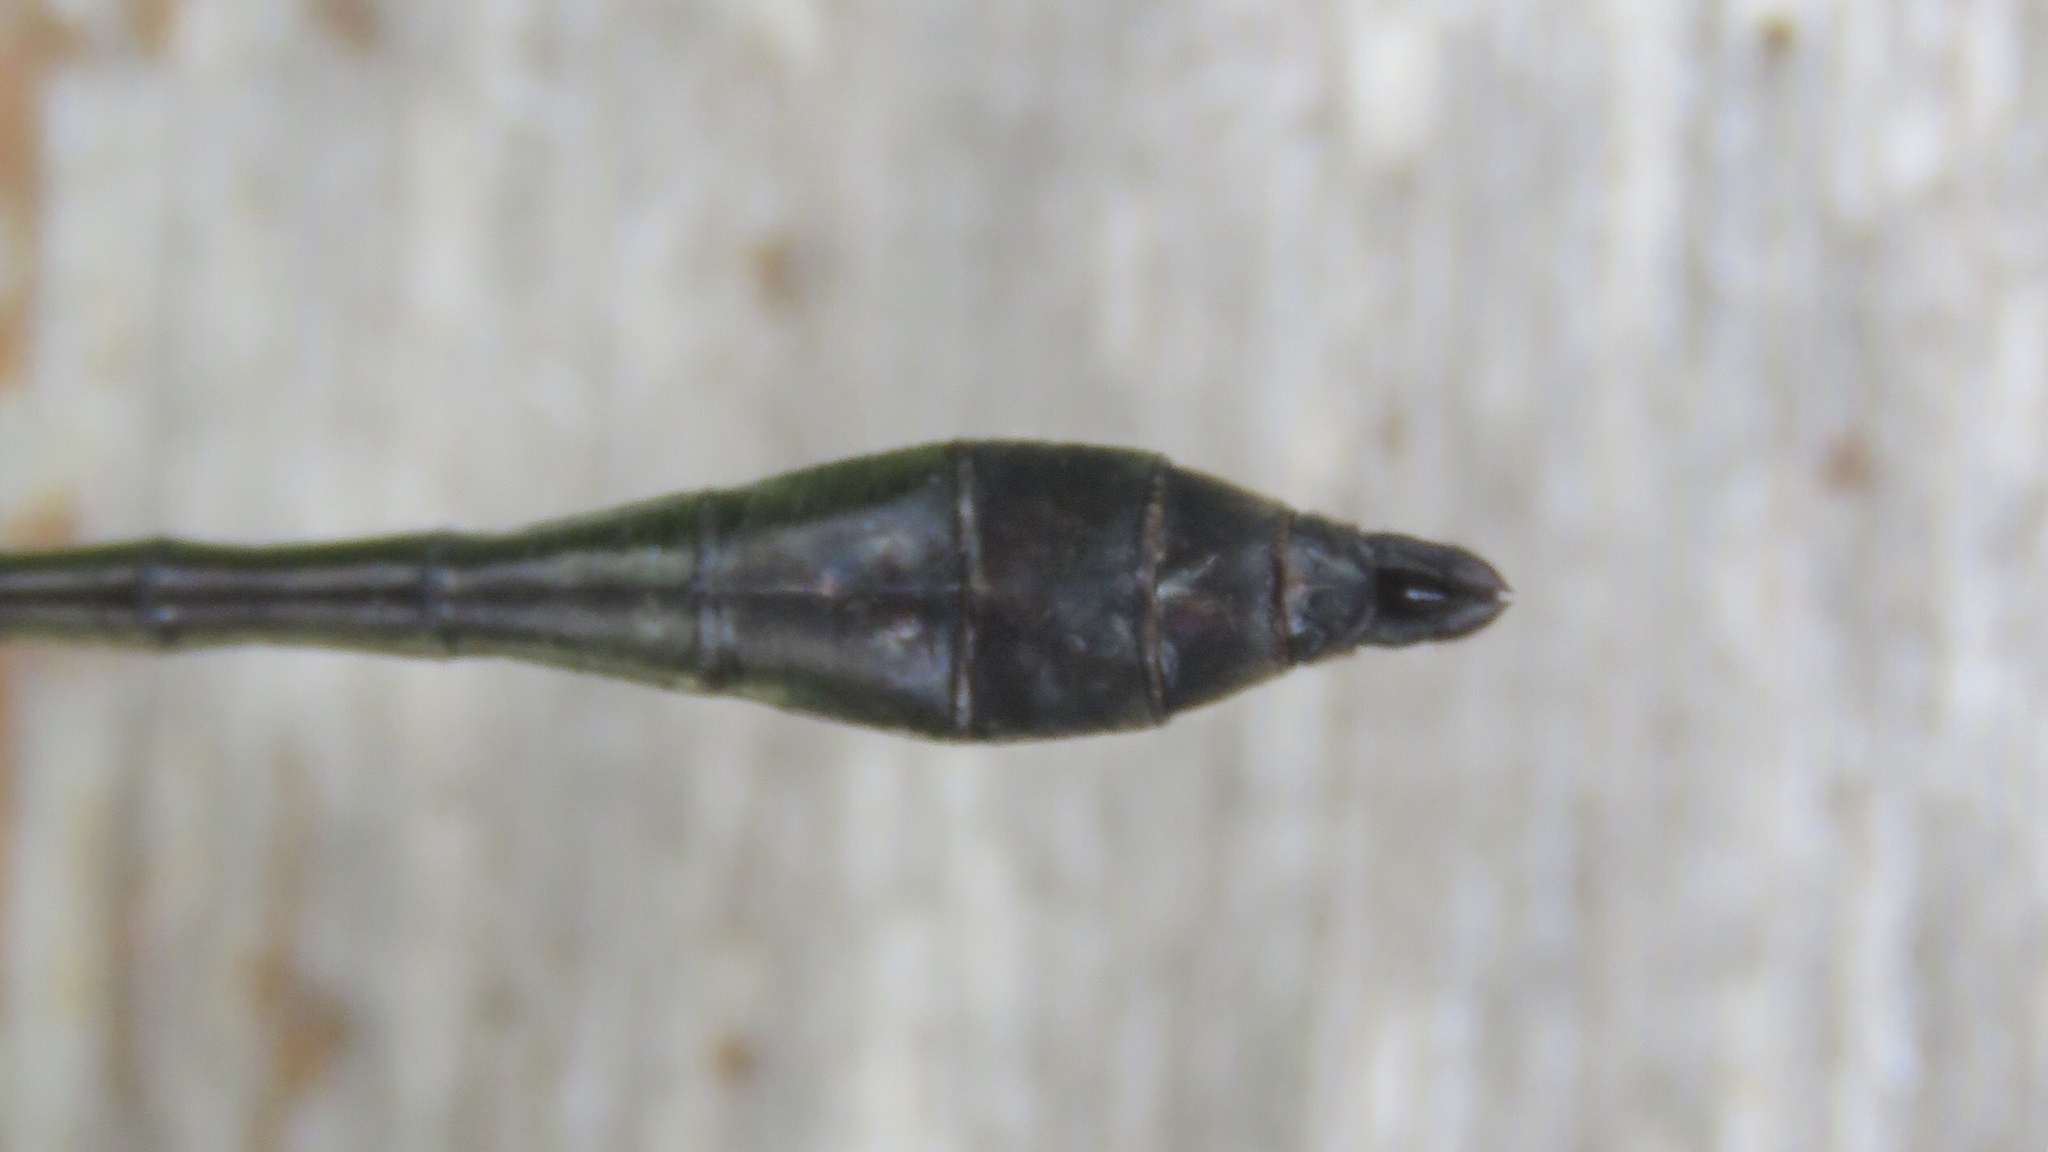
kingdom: Animalia
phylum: Arthropoda
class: Insecta
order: Odonata
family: Corduliidae
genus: Dorocordulia
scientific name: Dorocordulia libera
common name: Racket-tailed emerald
